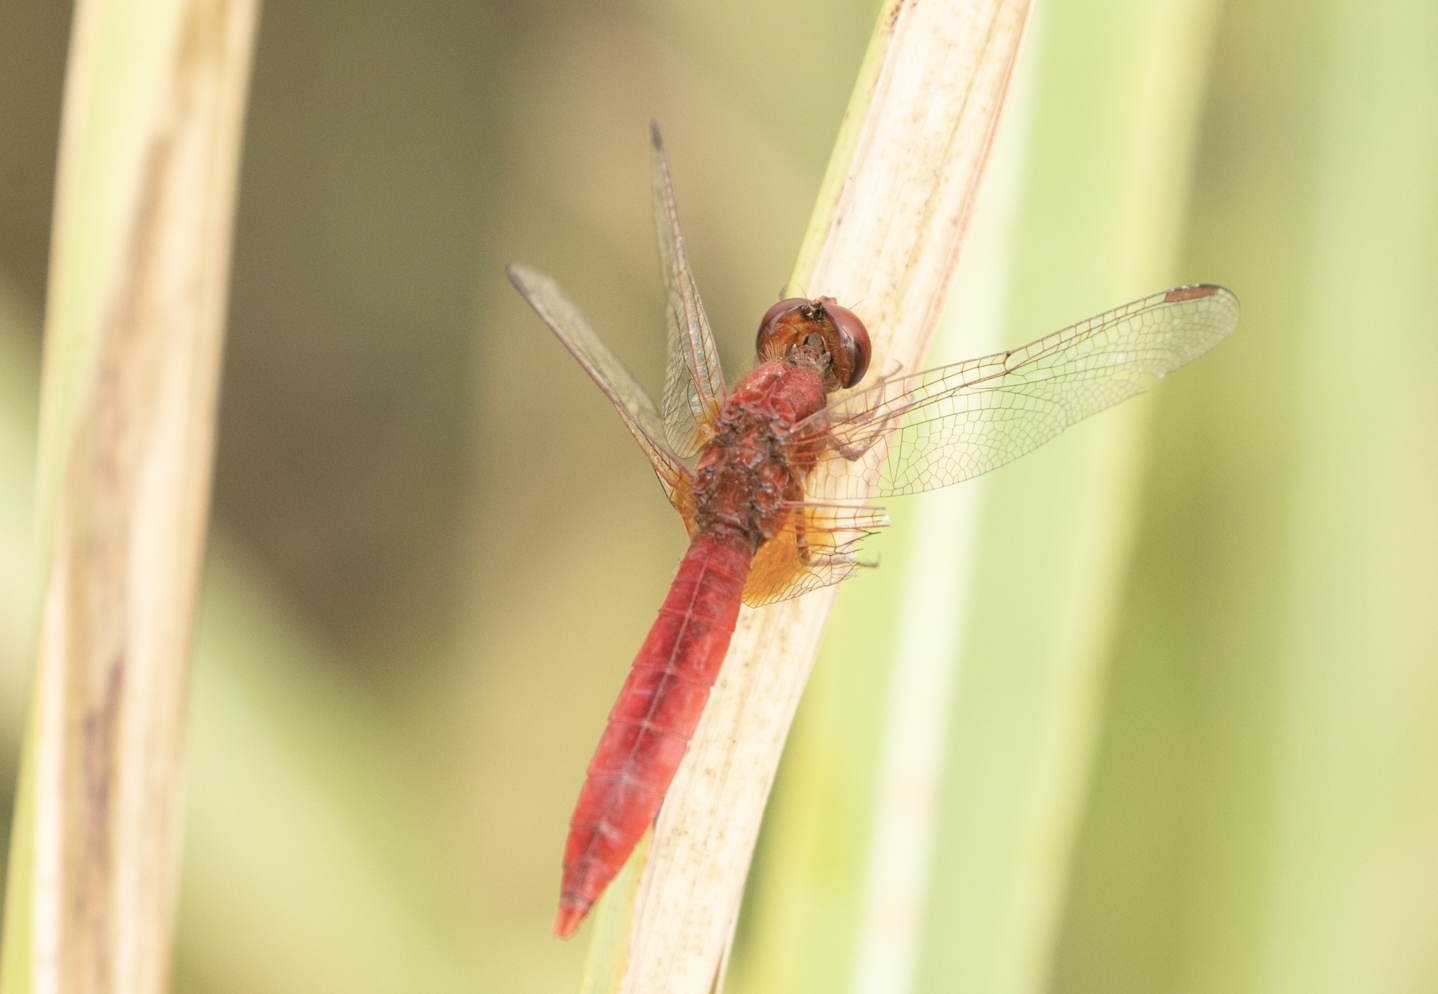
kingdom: Animalia
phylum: Arthropoda
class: Insecta
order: Odonata
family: Libellulidae
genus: Crocothemis
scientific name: Crocothemis erythraea
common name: Scarlet dragonfly
